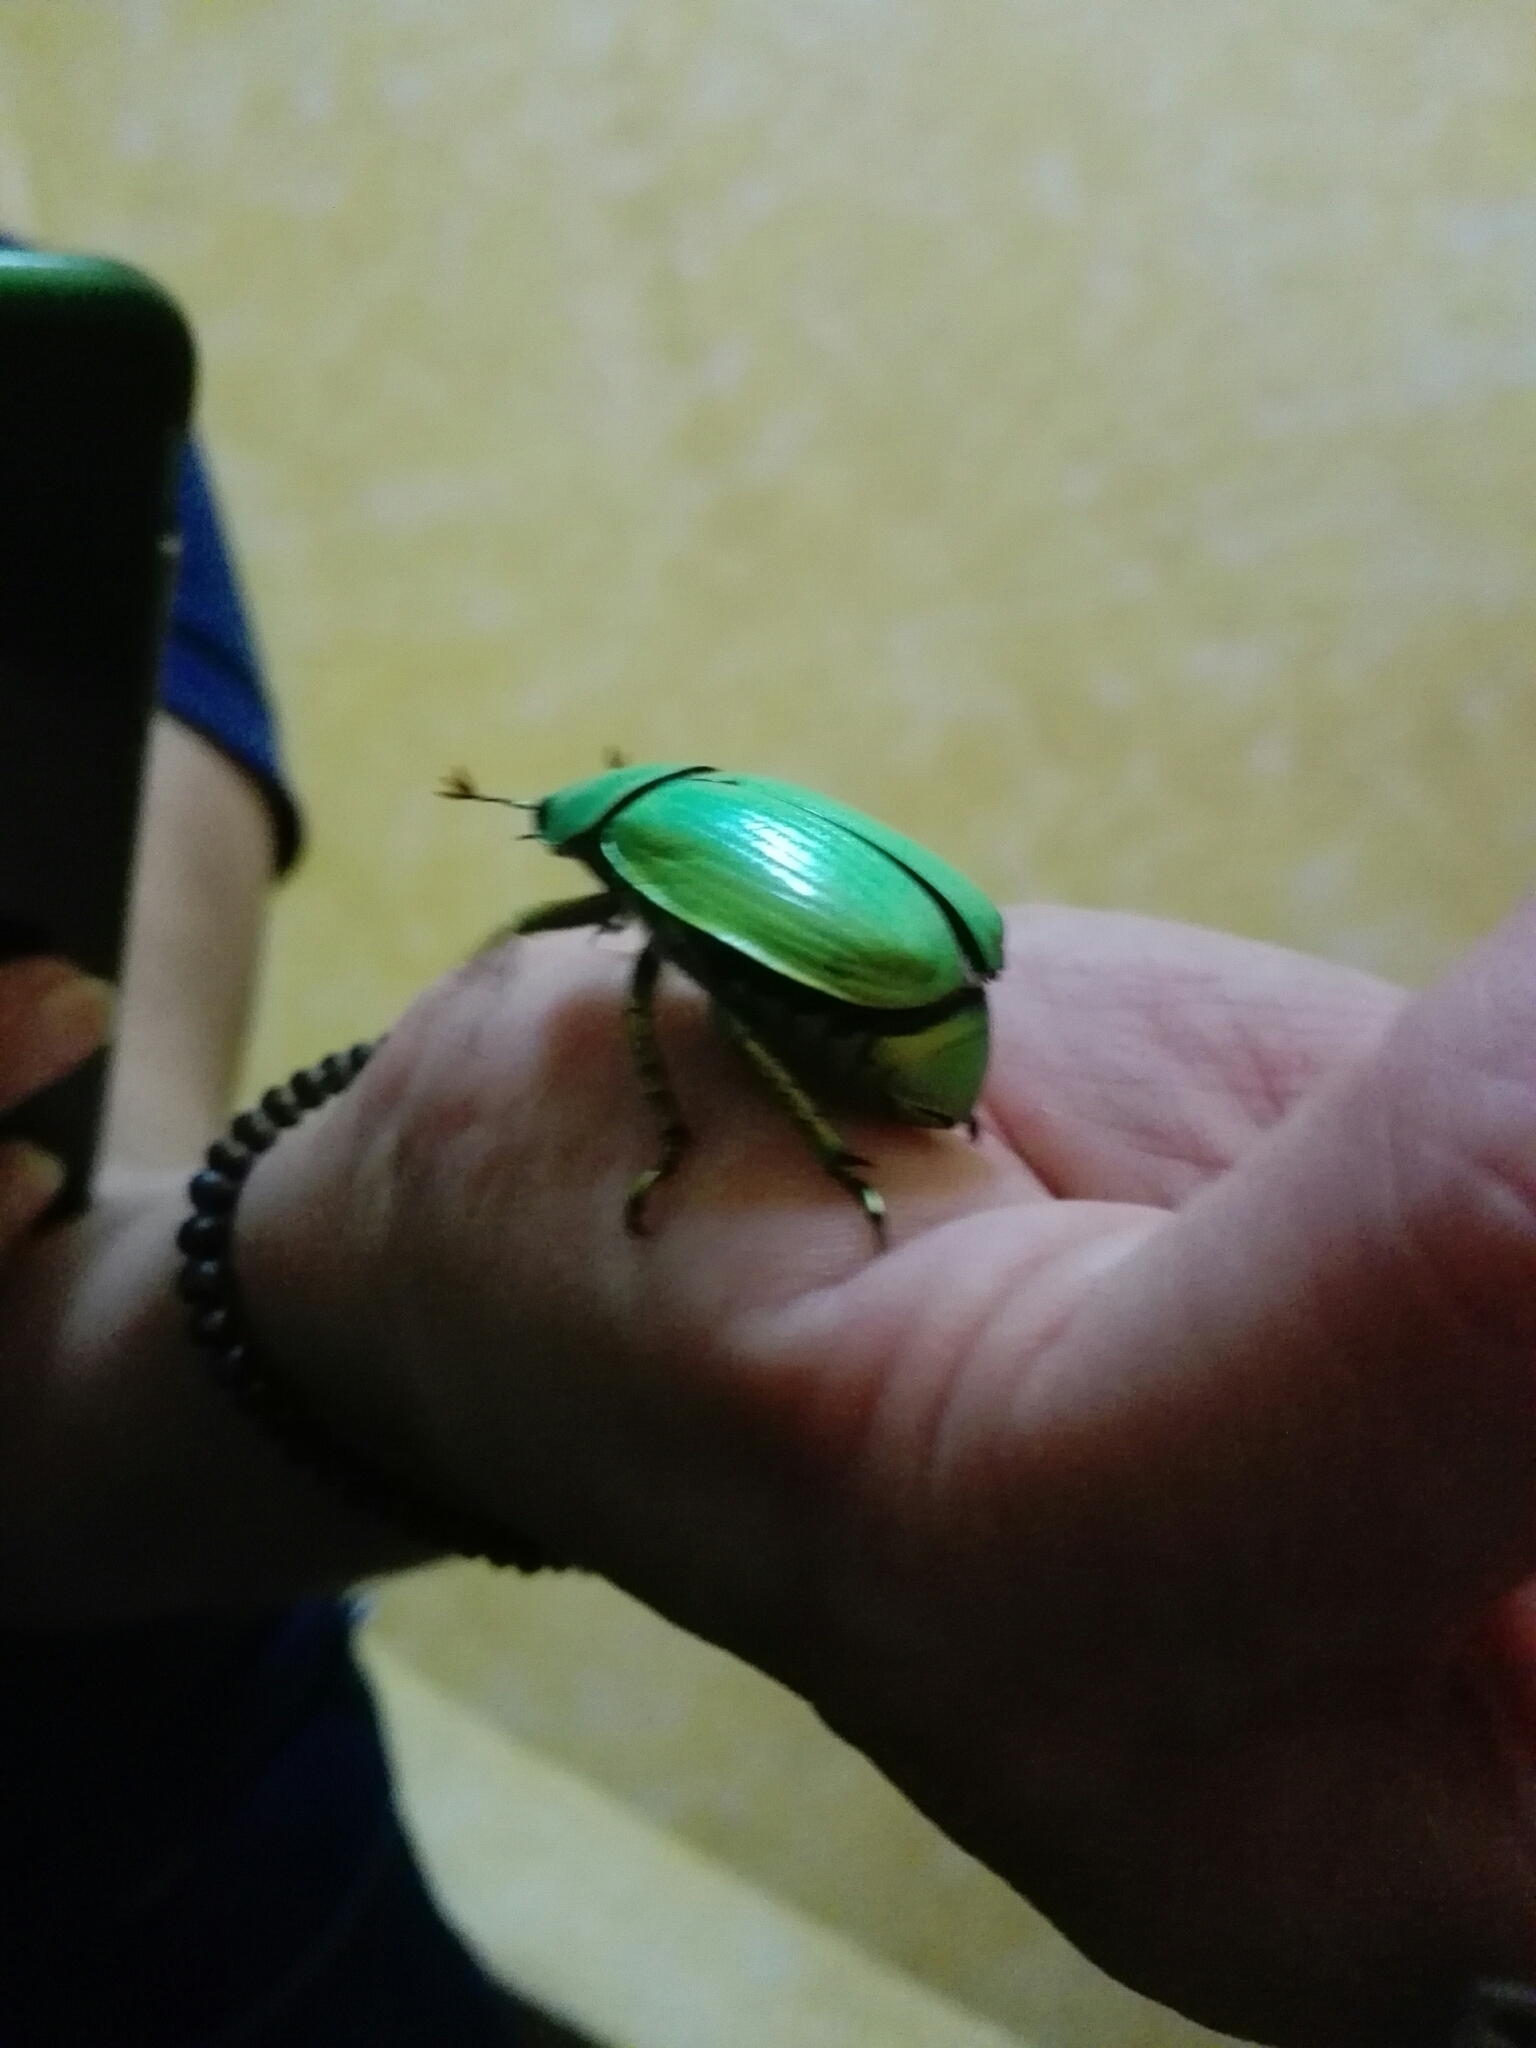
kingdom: Animalia
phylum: Arthropoda
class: Insecta
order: Coleoptera
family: Scarabaeidae
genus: Chrysina
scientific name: Chrysina psittacina
